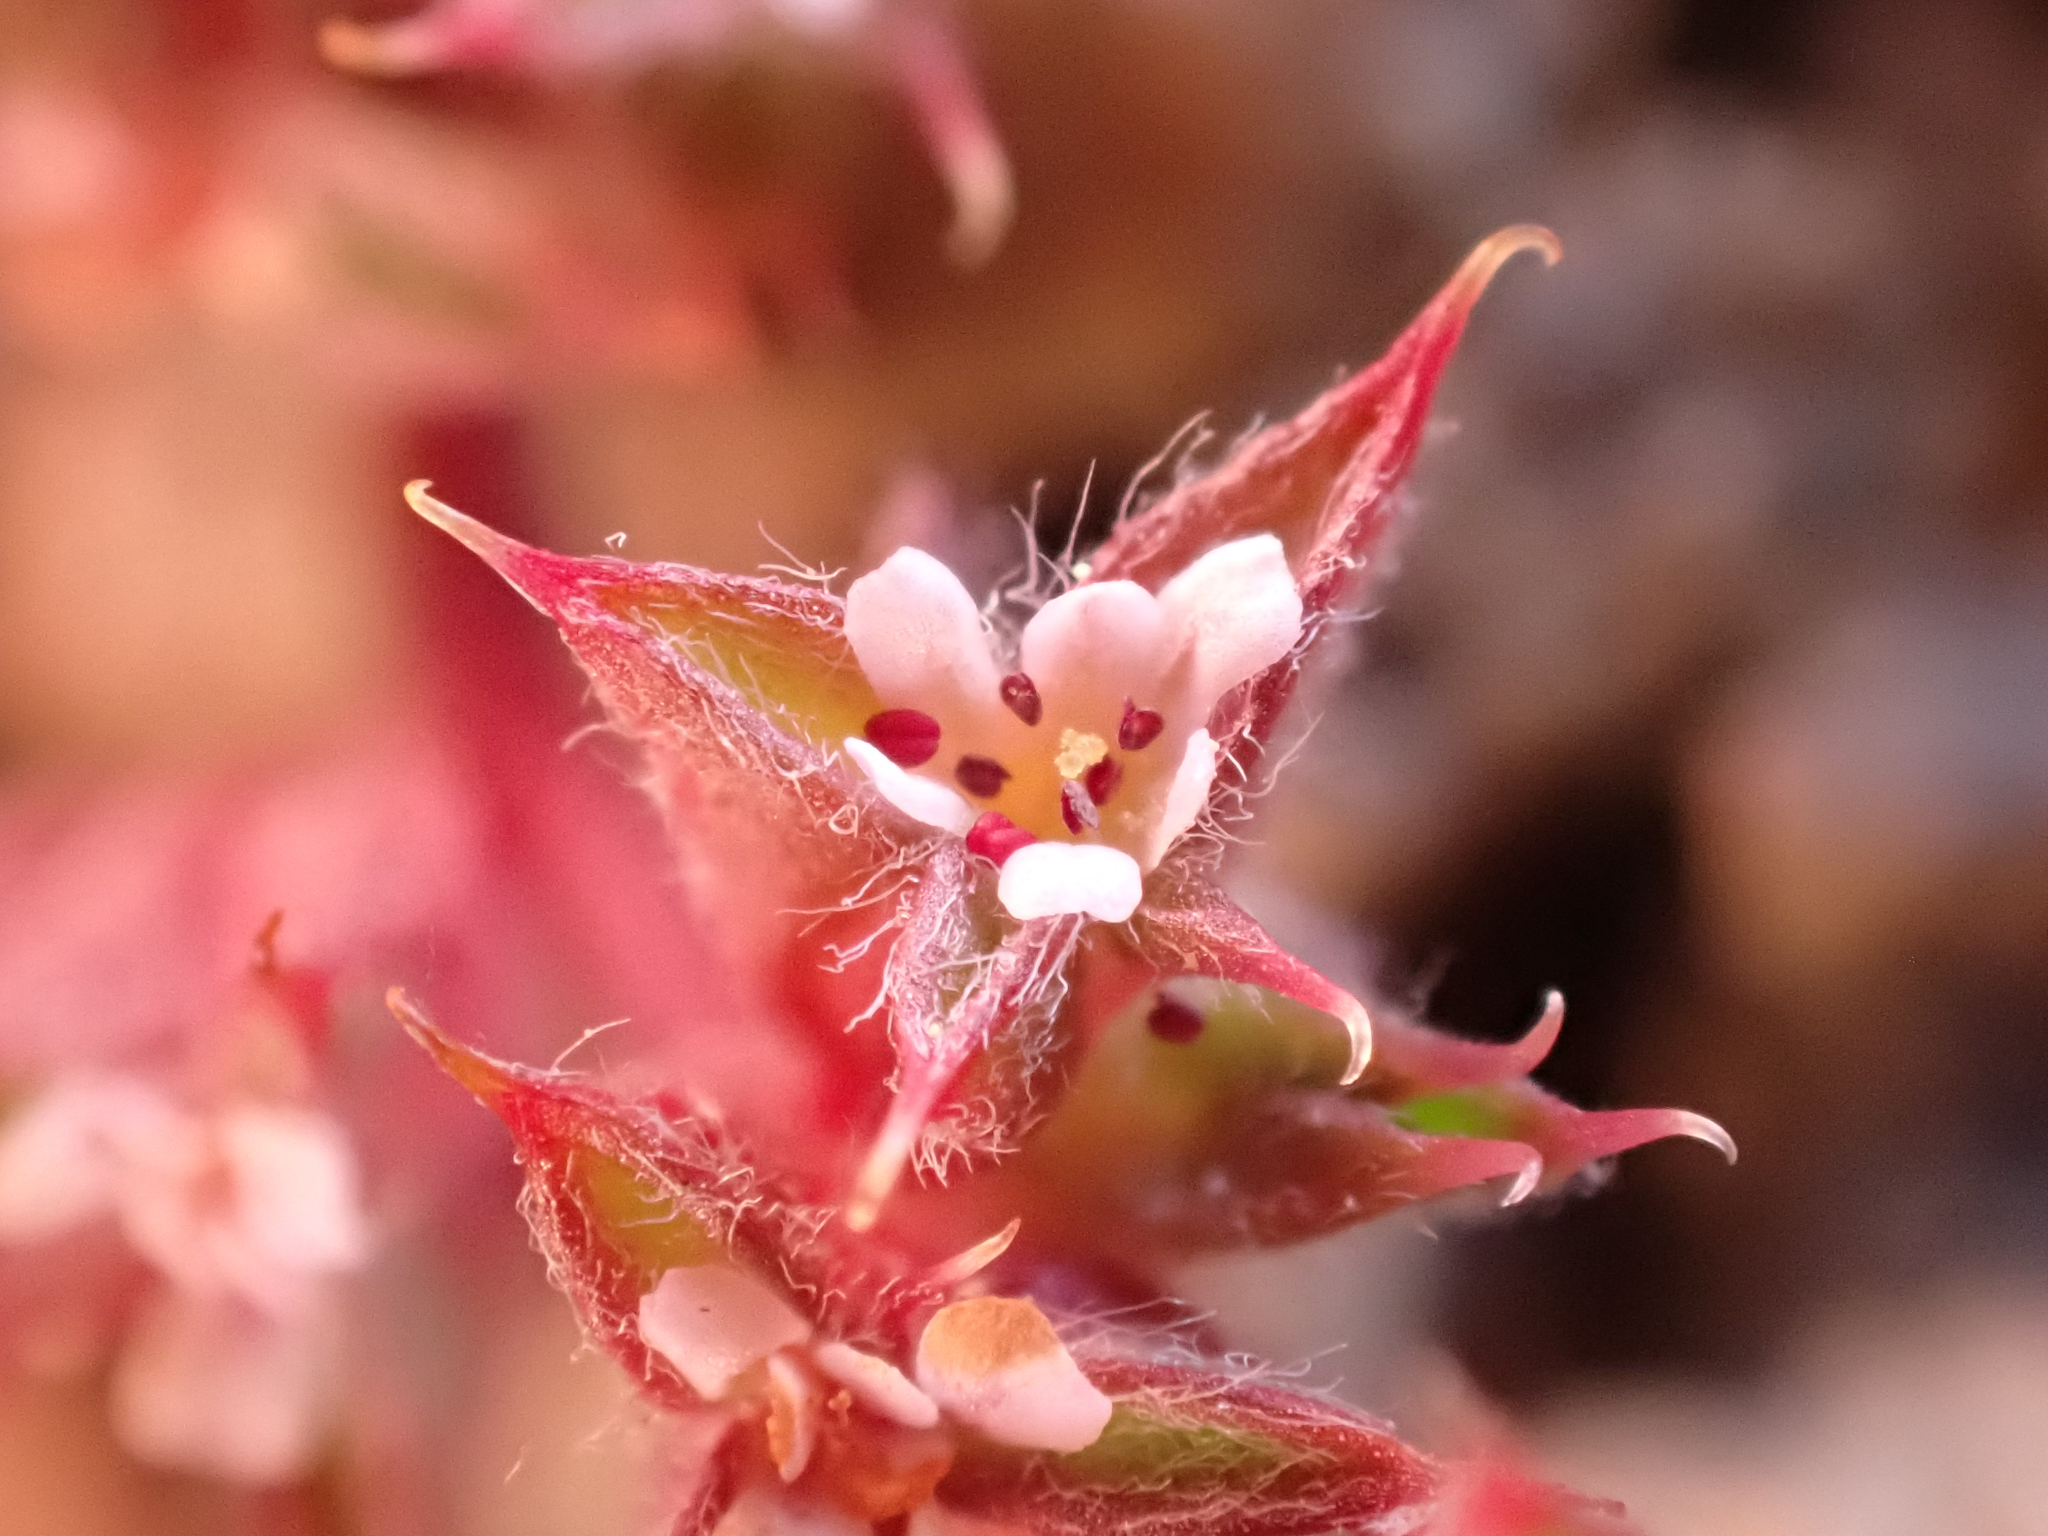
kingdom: Plantae
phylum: Tracheophyta
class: Magnoliopsida
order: Caryophyllales
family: Polygonaceae
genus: Chorizanthe
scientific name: Chorizanthe polygonoides
